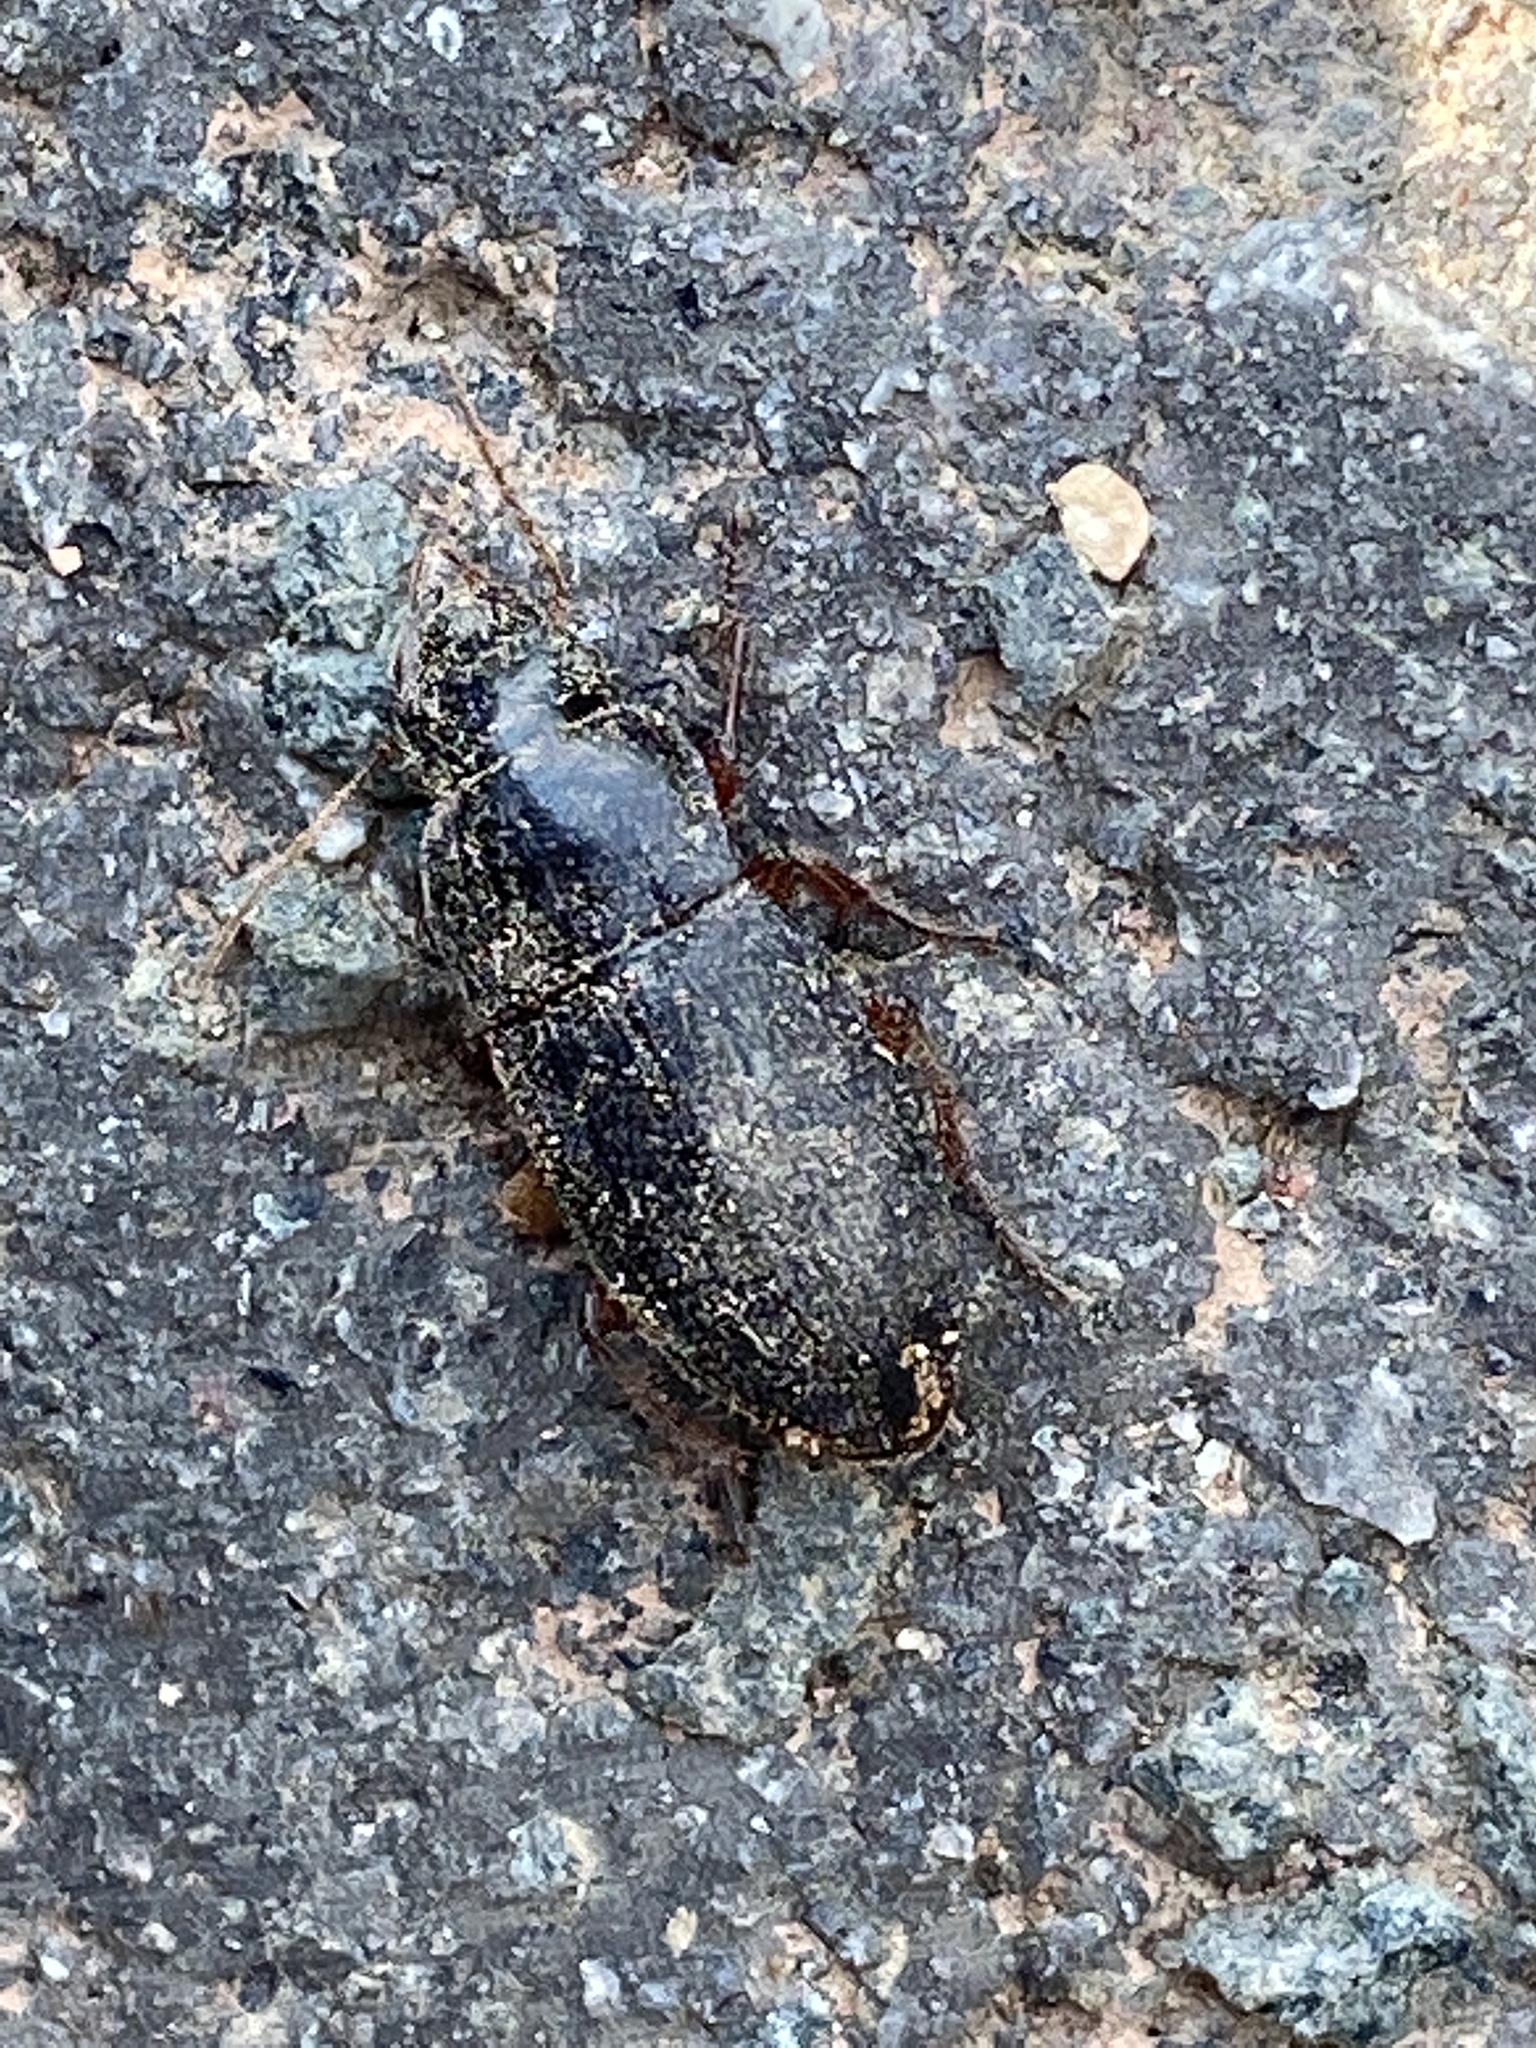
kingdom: Animalia
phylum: Arthropoda
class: Insecta
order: Coleoptera
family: Carabidae
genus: Harpalus
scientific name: Harpalus rubripes
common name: Red-legged harp ground beetle
